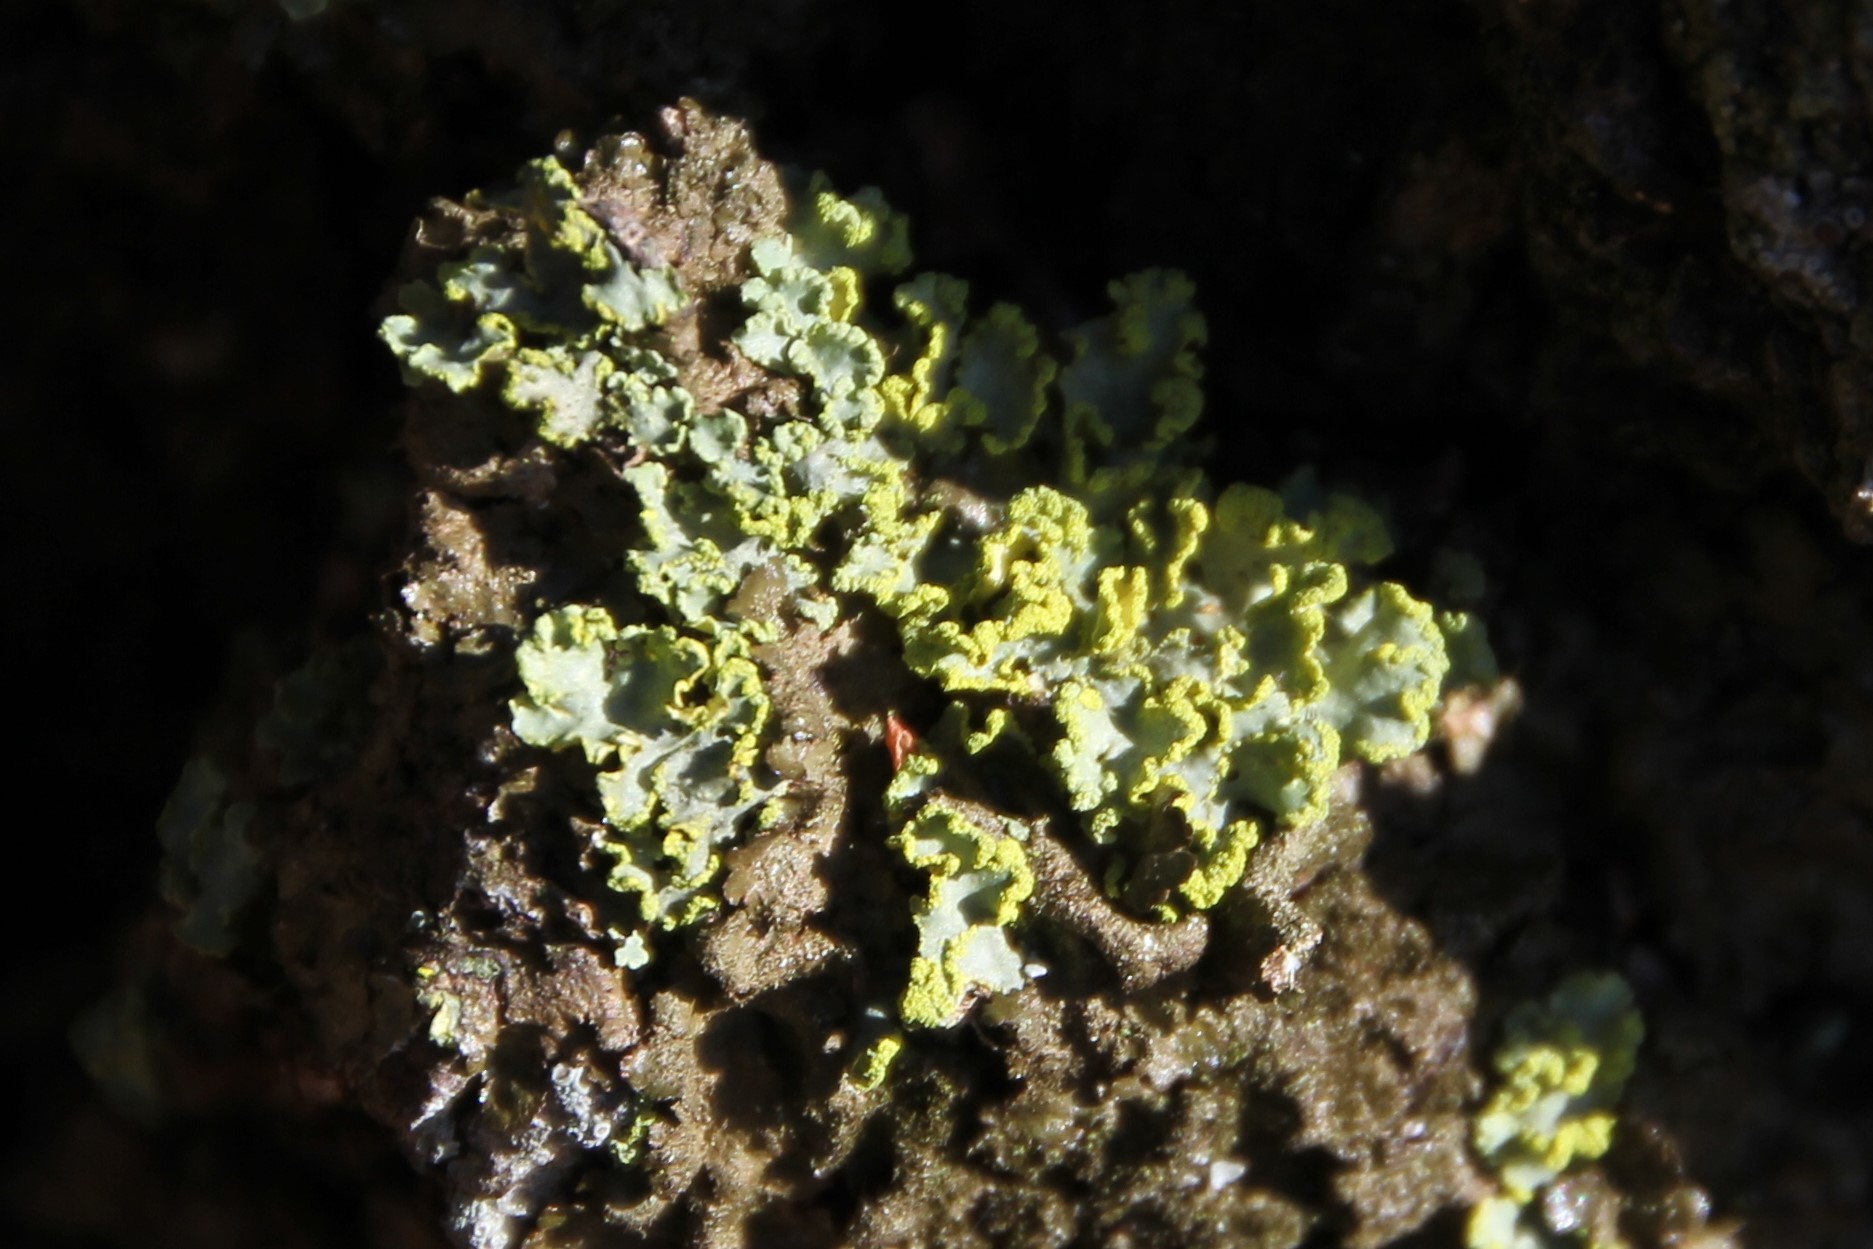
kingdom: Fungi
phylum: Ascomycota
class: Lecanoromycetes
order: Lecanorales
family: Parmeliaceae
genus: Vulpicida
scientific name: Vulpicida pinastri
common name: Powdered sunshine lichen
